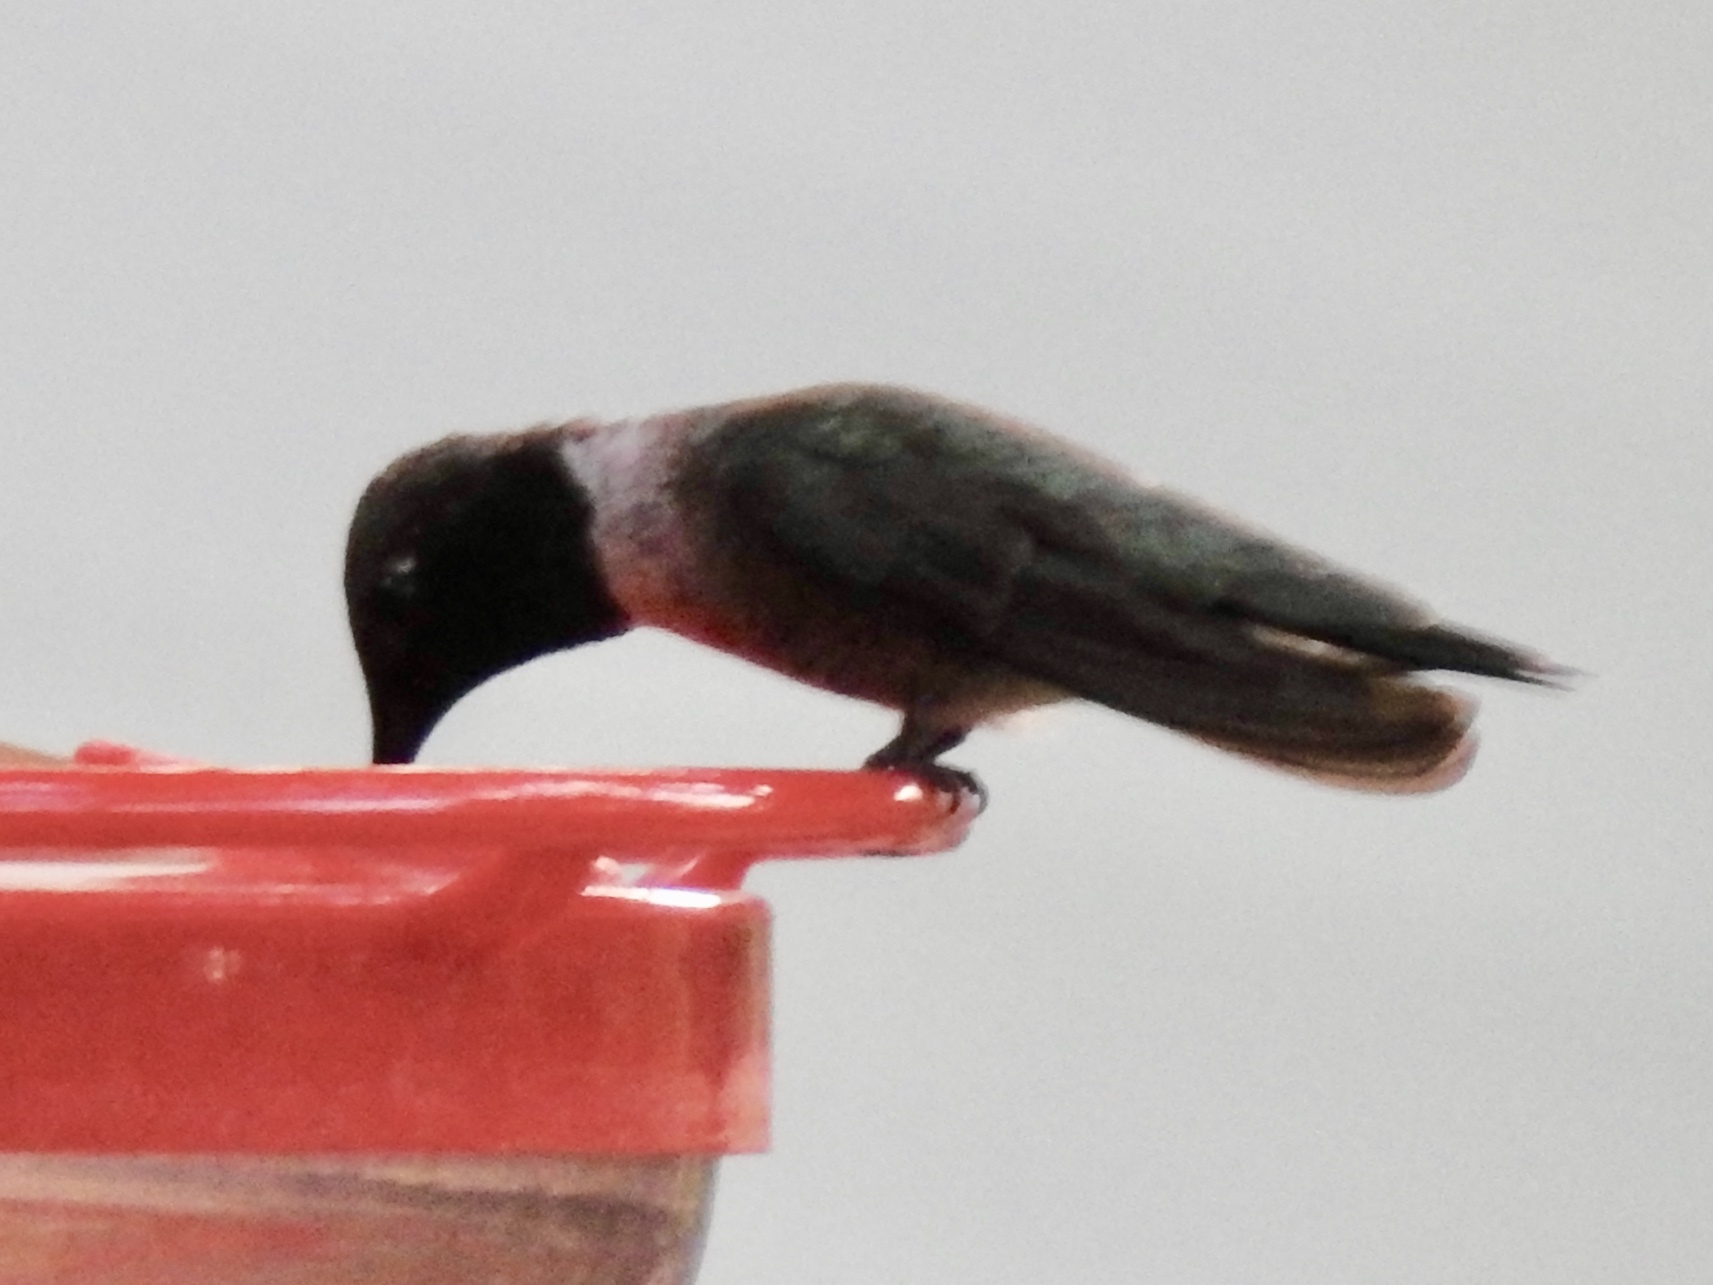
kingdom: Animalia
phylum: Chordata
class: Aves
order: Apodiformes
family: Trochilidae
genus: Archilochus
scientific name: Archilochus alexandri
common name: Black-chinned hummingbird
